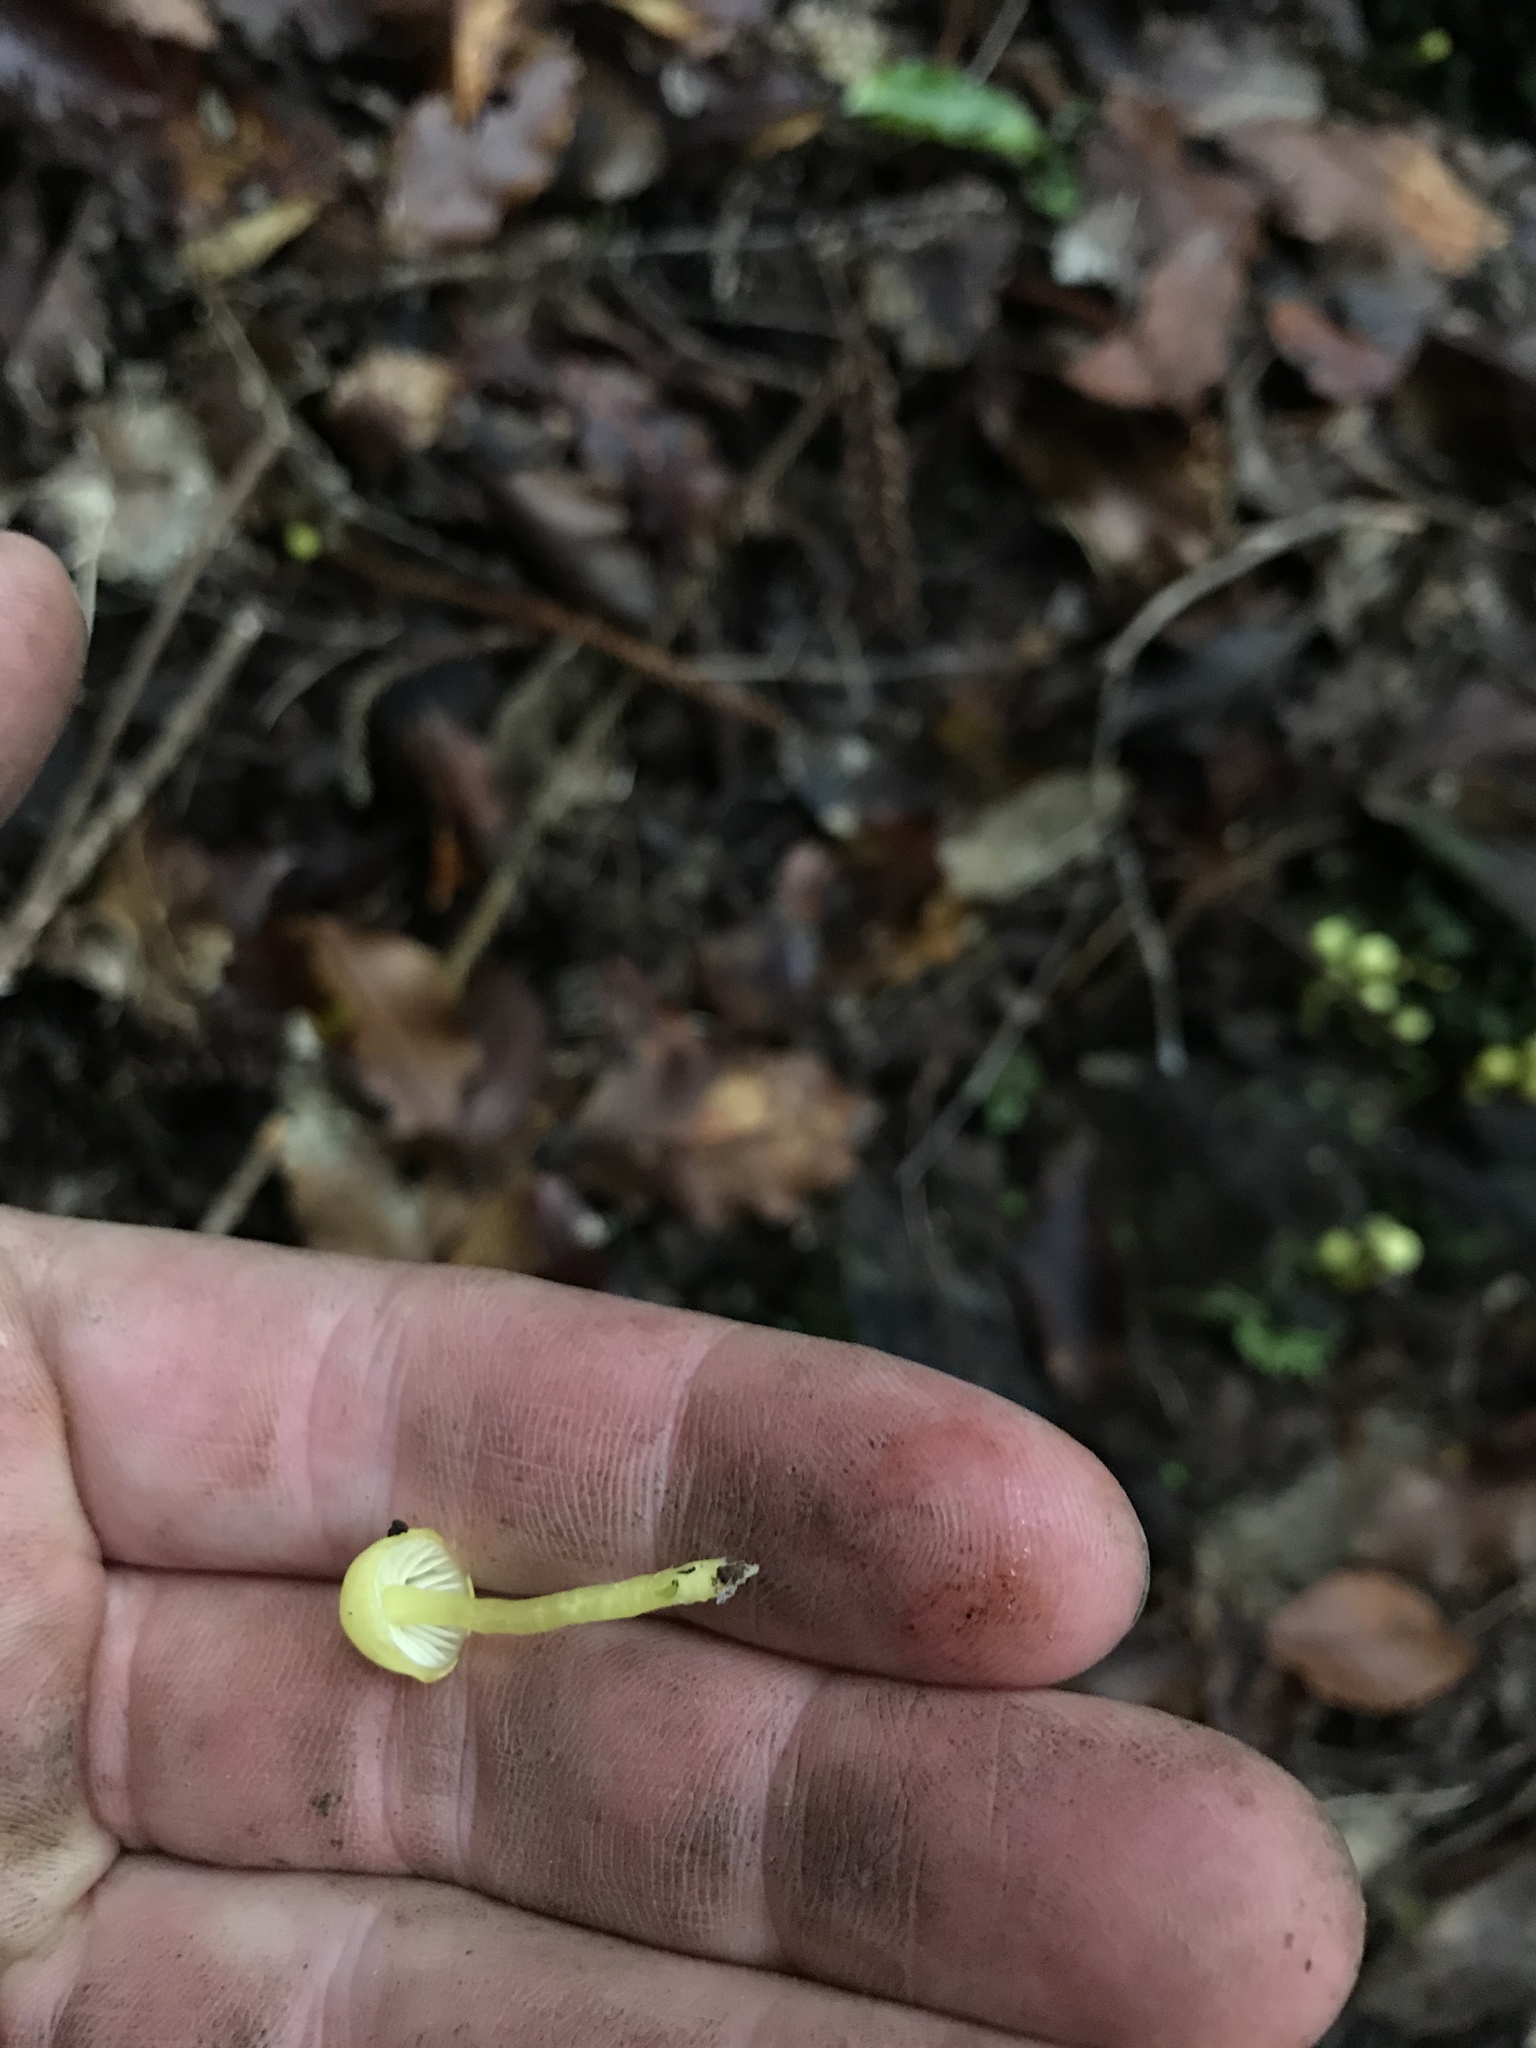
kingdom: Fungi
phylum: Basidiomycota
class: Agaricomycetes
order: Agaricales
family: Hygrophoraceae
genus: Gloioxanthomyces
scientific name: Gloioxanthomyces
